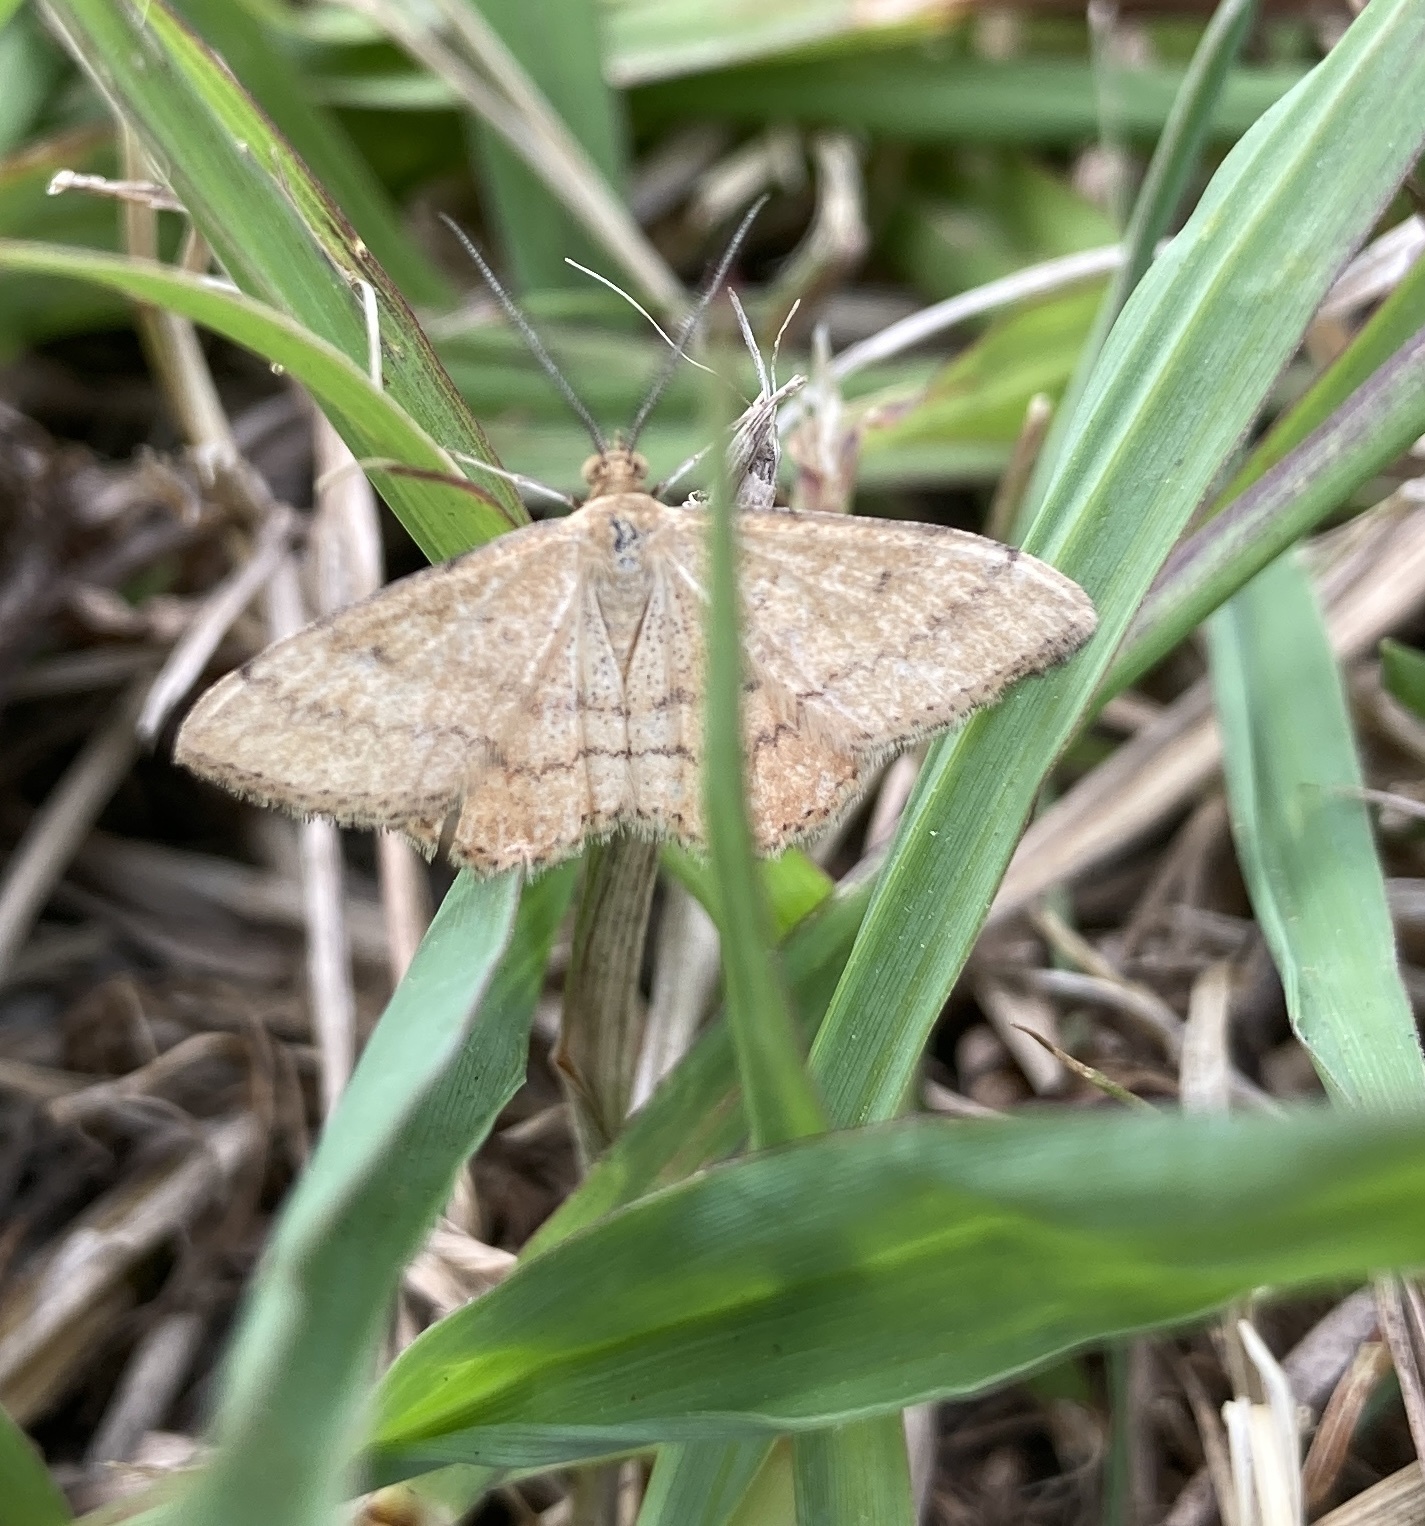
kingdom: Animalia
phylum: Arthropoda
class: Insecta
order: Lepidoptera
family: Geometridae
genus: Scopula
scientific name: Scopula rubraria
